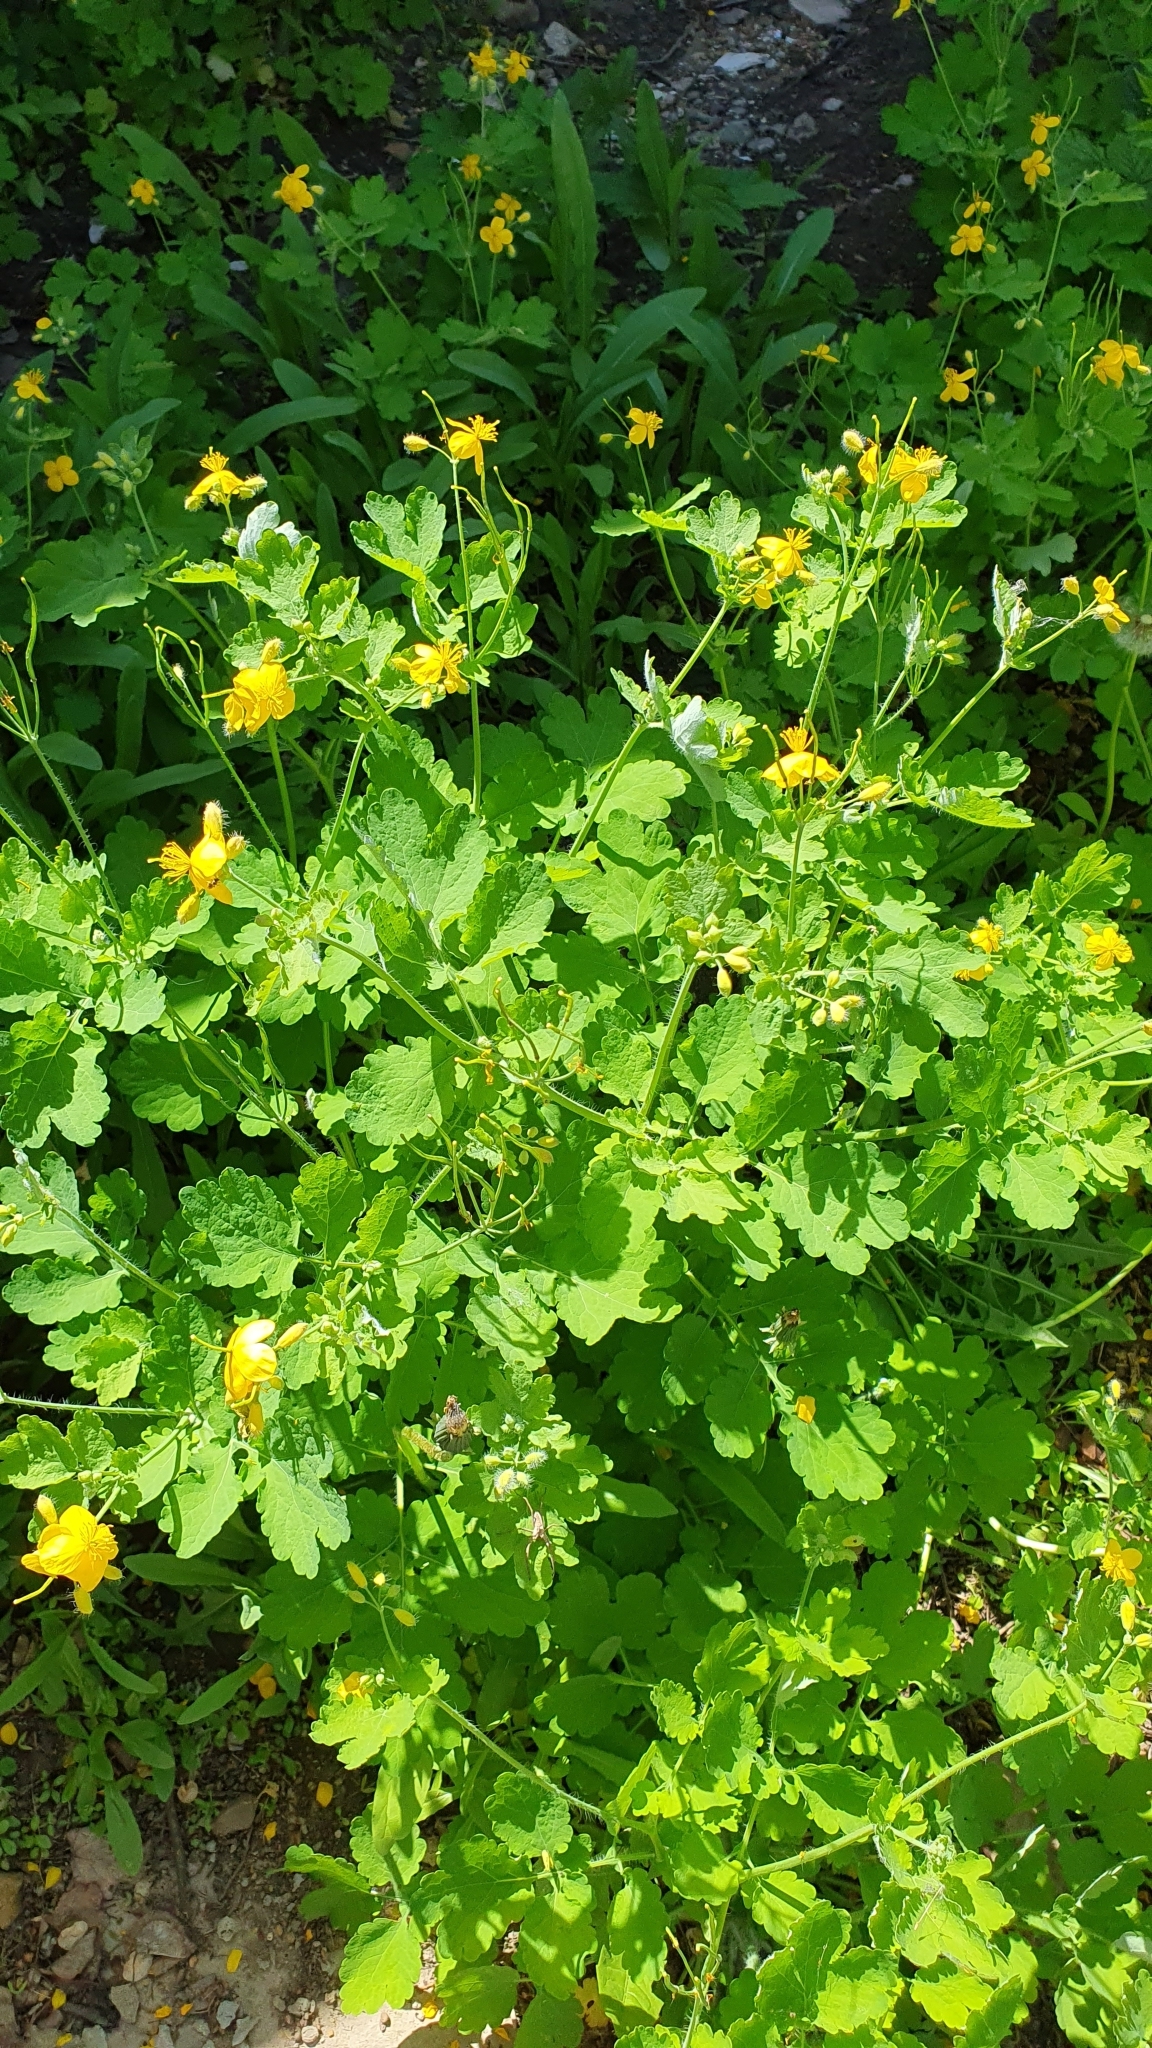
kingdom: Plantae
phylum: Tracheophyta
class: Magnoliopsida
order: Ranunculales
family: Papaveraceae
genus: Chelidonium
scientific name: Chelidonium majus
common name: Greater celandine
